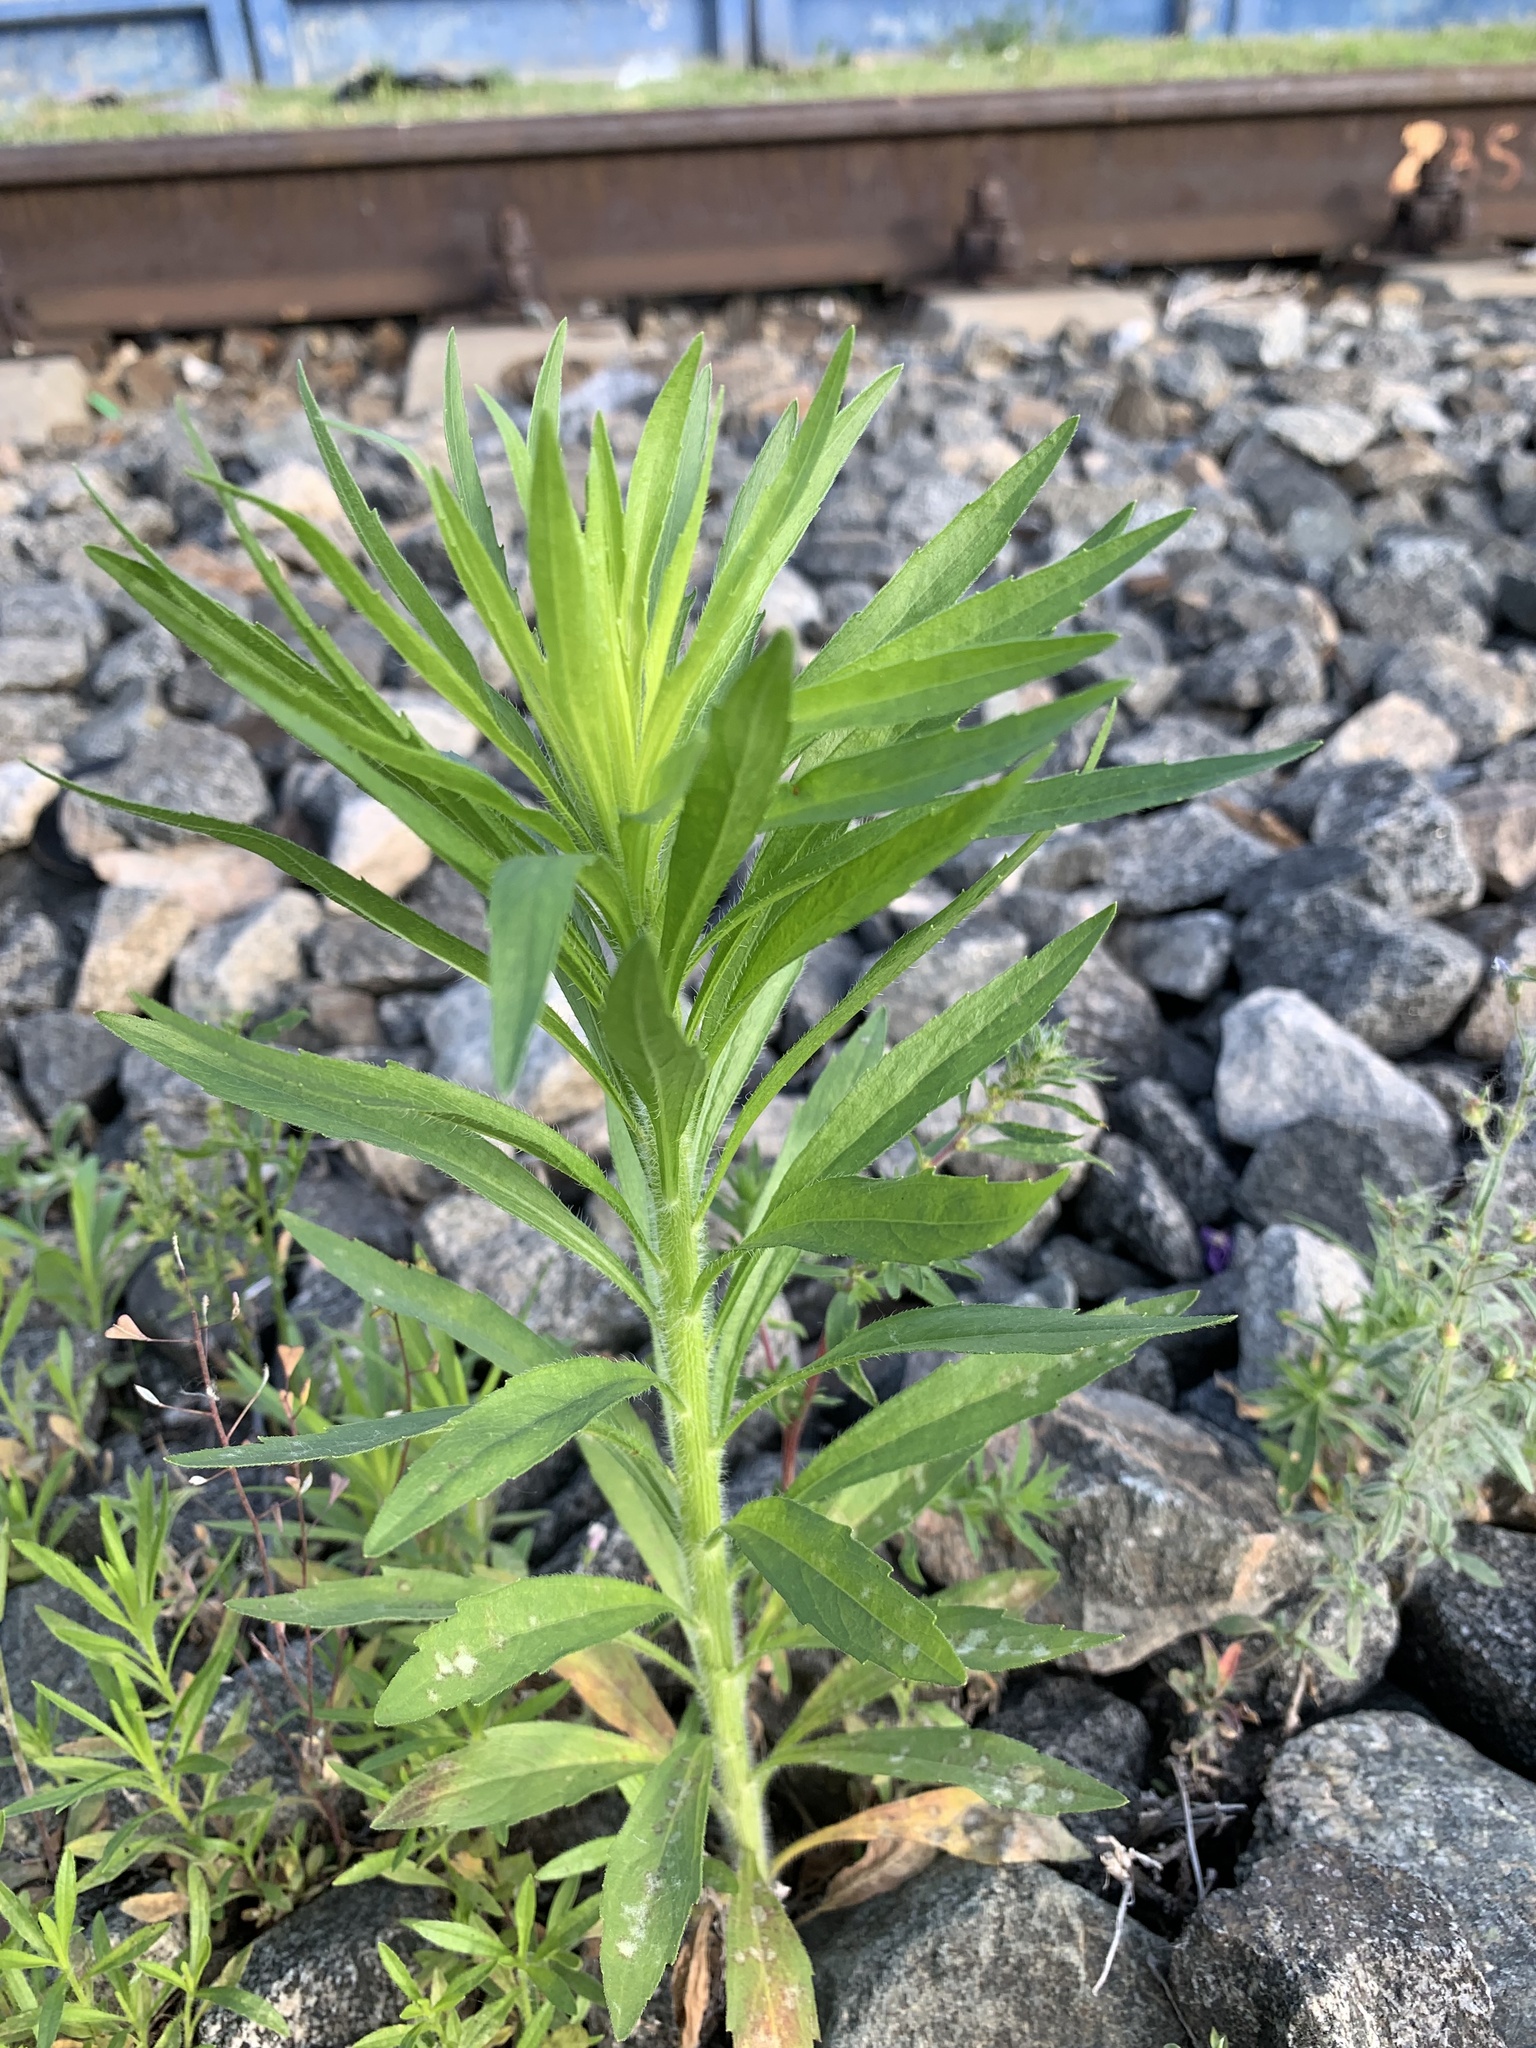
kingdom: Plantae
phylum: Tracheophyta
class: Magnoliopsida
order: Asterales
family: Asteraceae
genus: Erigeron
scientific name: Erigeron canadensis
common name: Canadian fleabane
